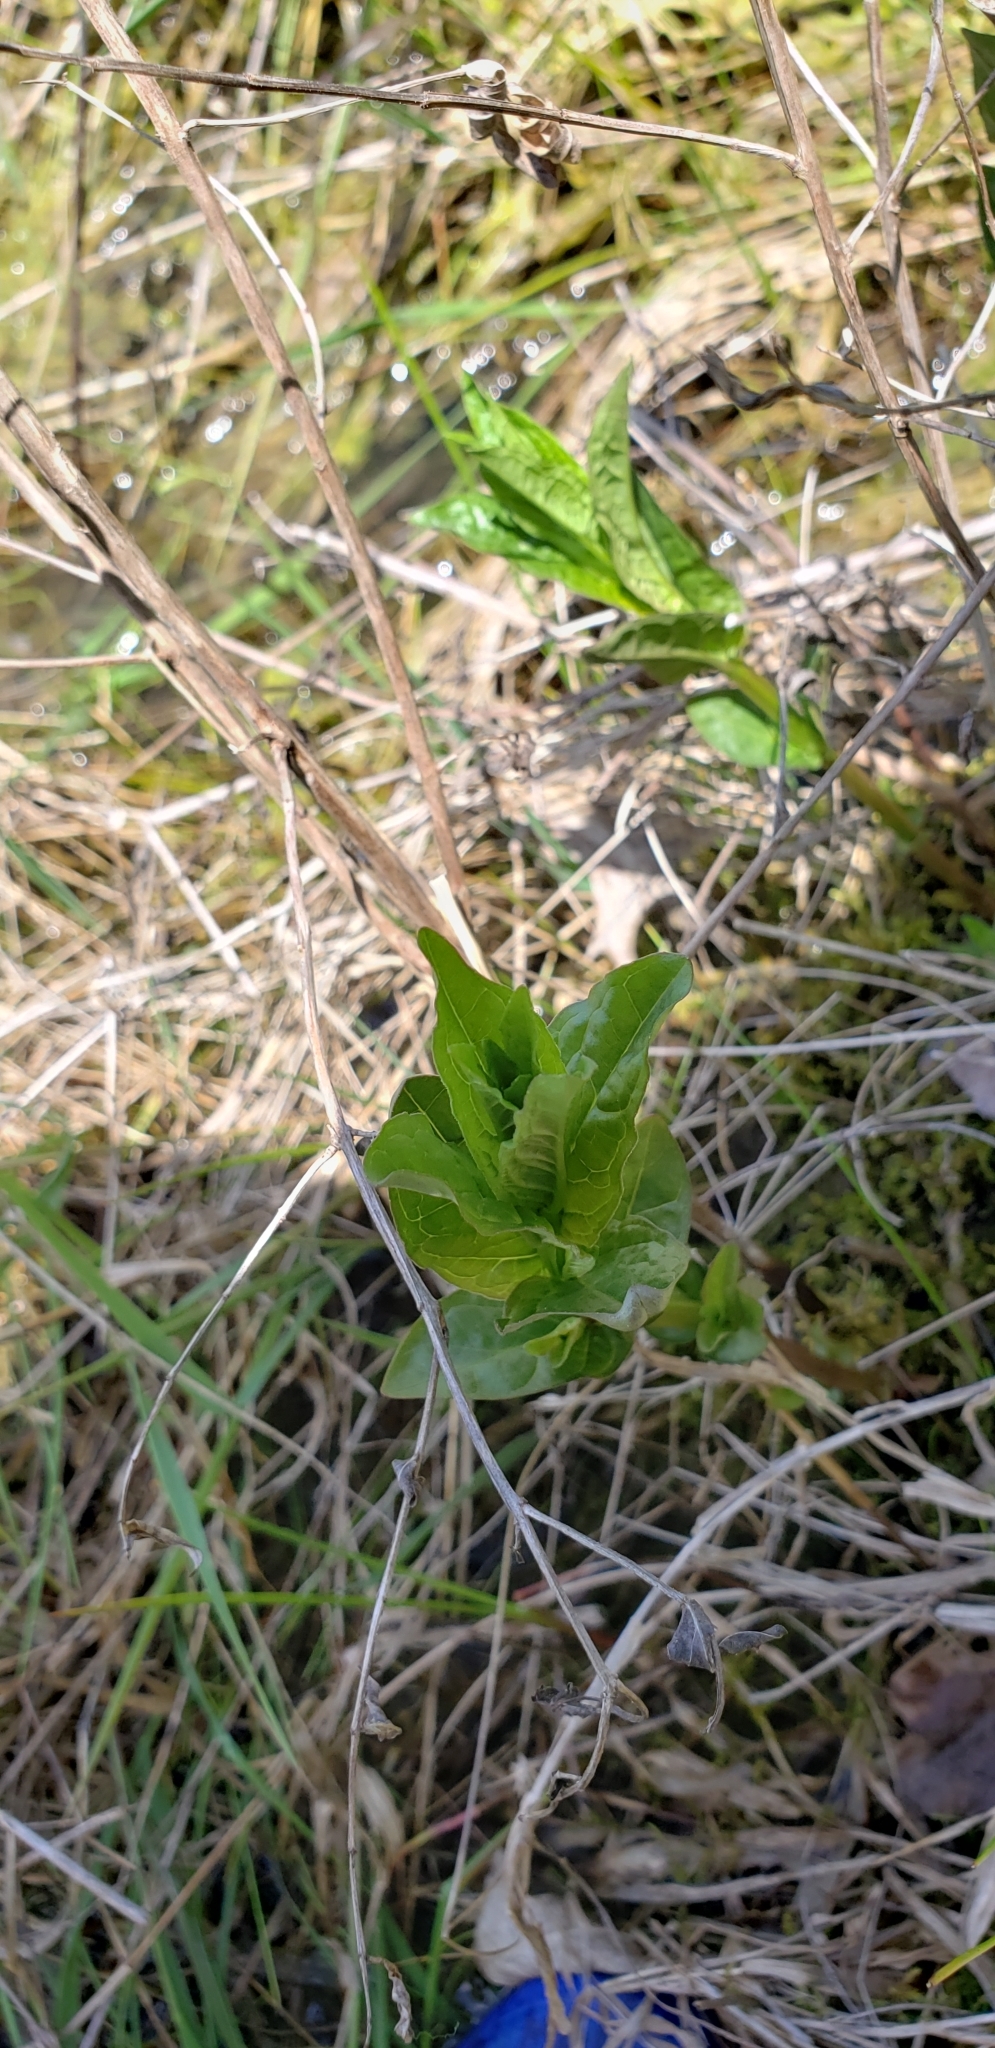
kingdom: Plantae
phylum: Tracheophyta
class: Magnoliopsida
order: Gentianales
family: Apocynaceae
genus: Apocynum
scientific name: Apocynum cannabinum
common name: Hemp dogbane
